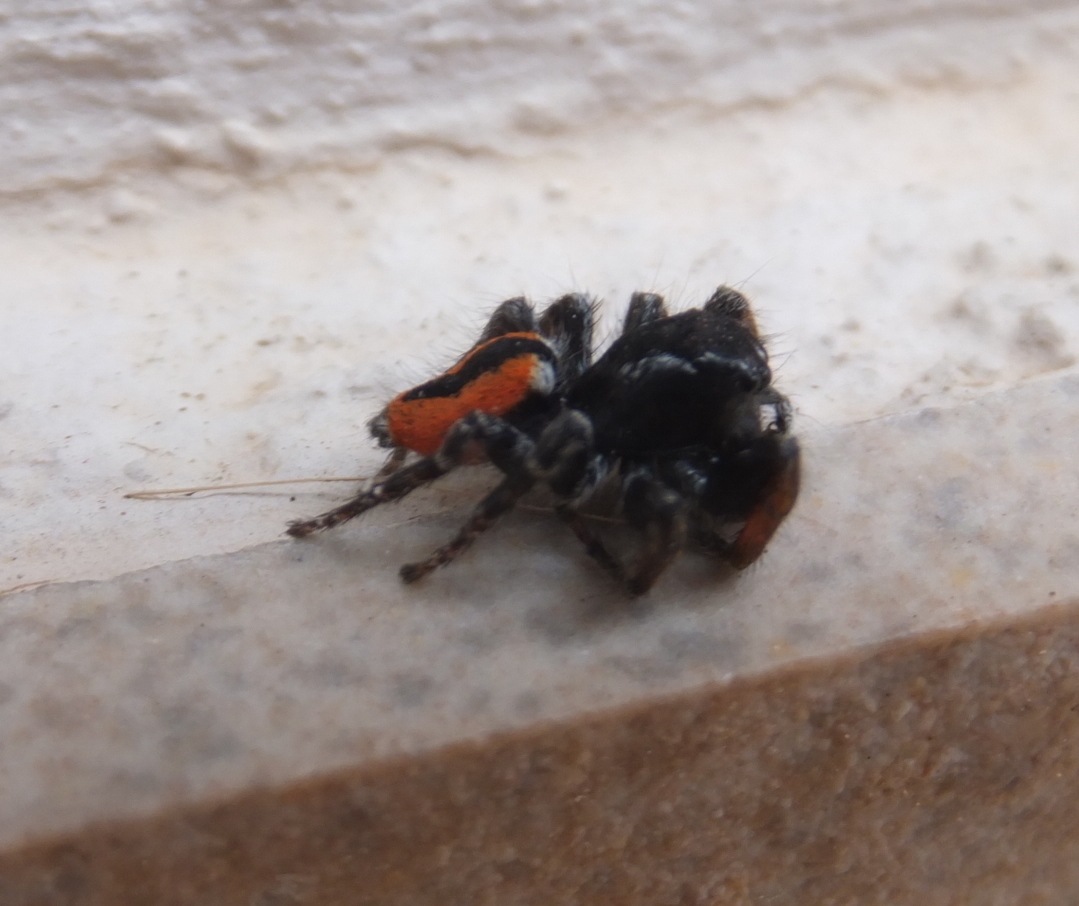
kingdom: Animalia
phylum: Arthropoda
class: Arachnida
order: Araneae
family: Salticidae
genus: Philaeus
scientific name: Philaeus chrysops
